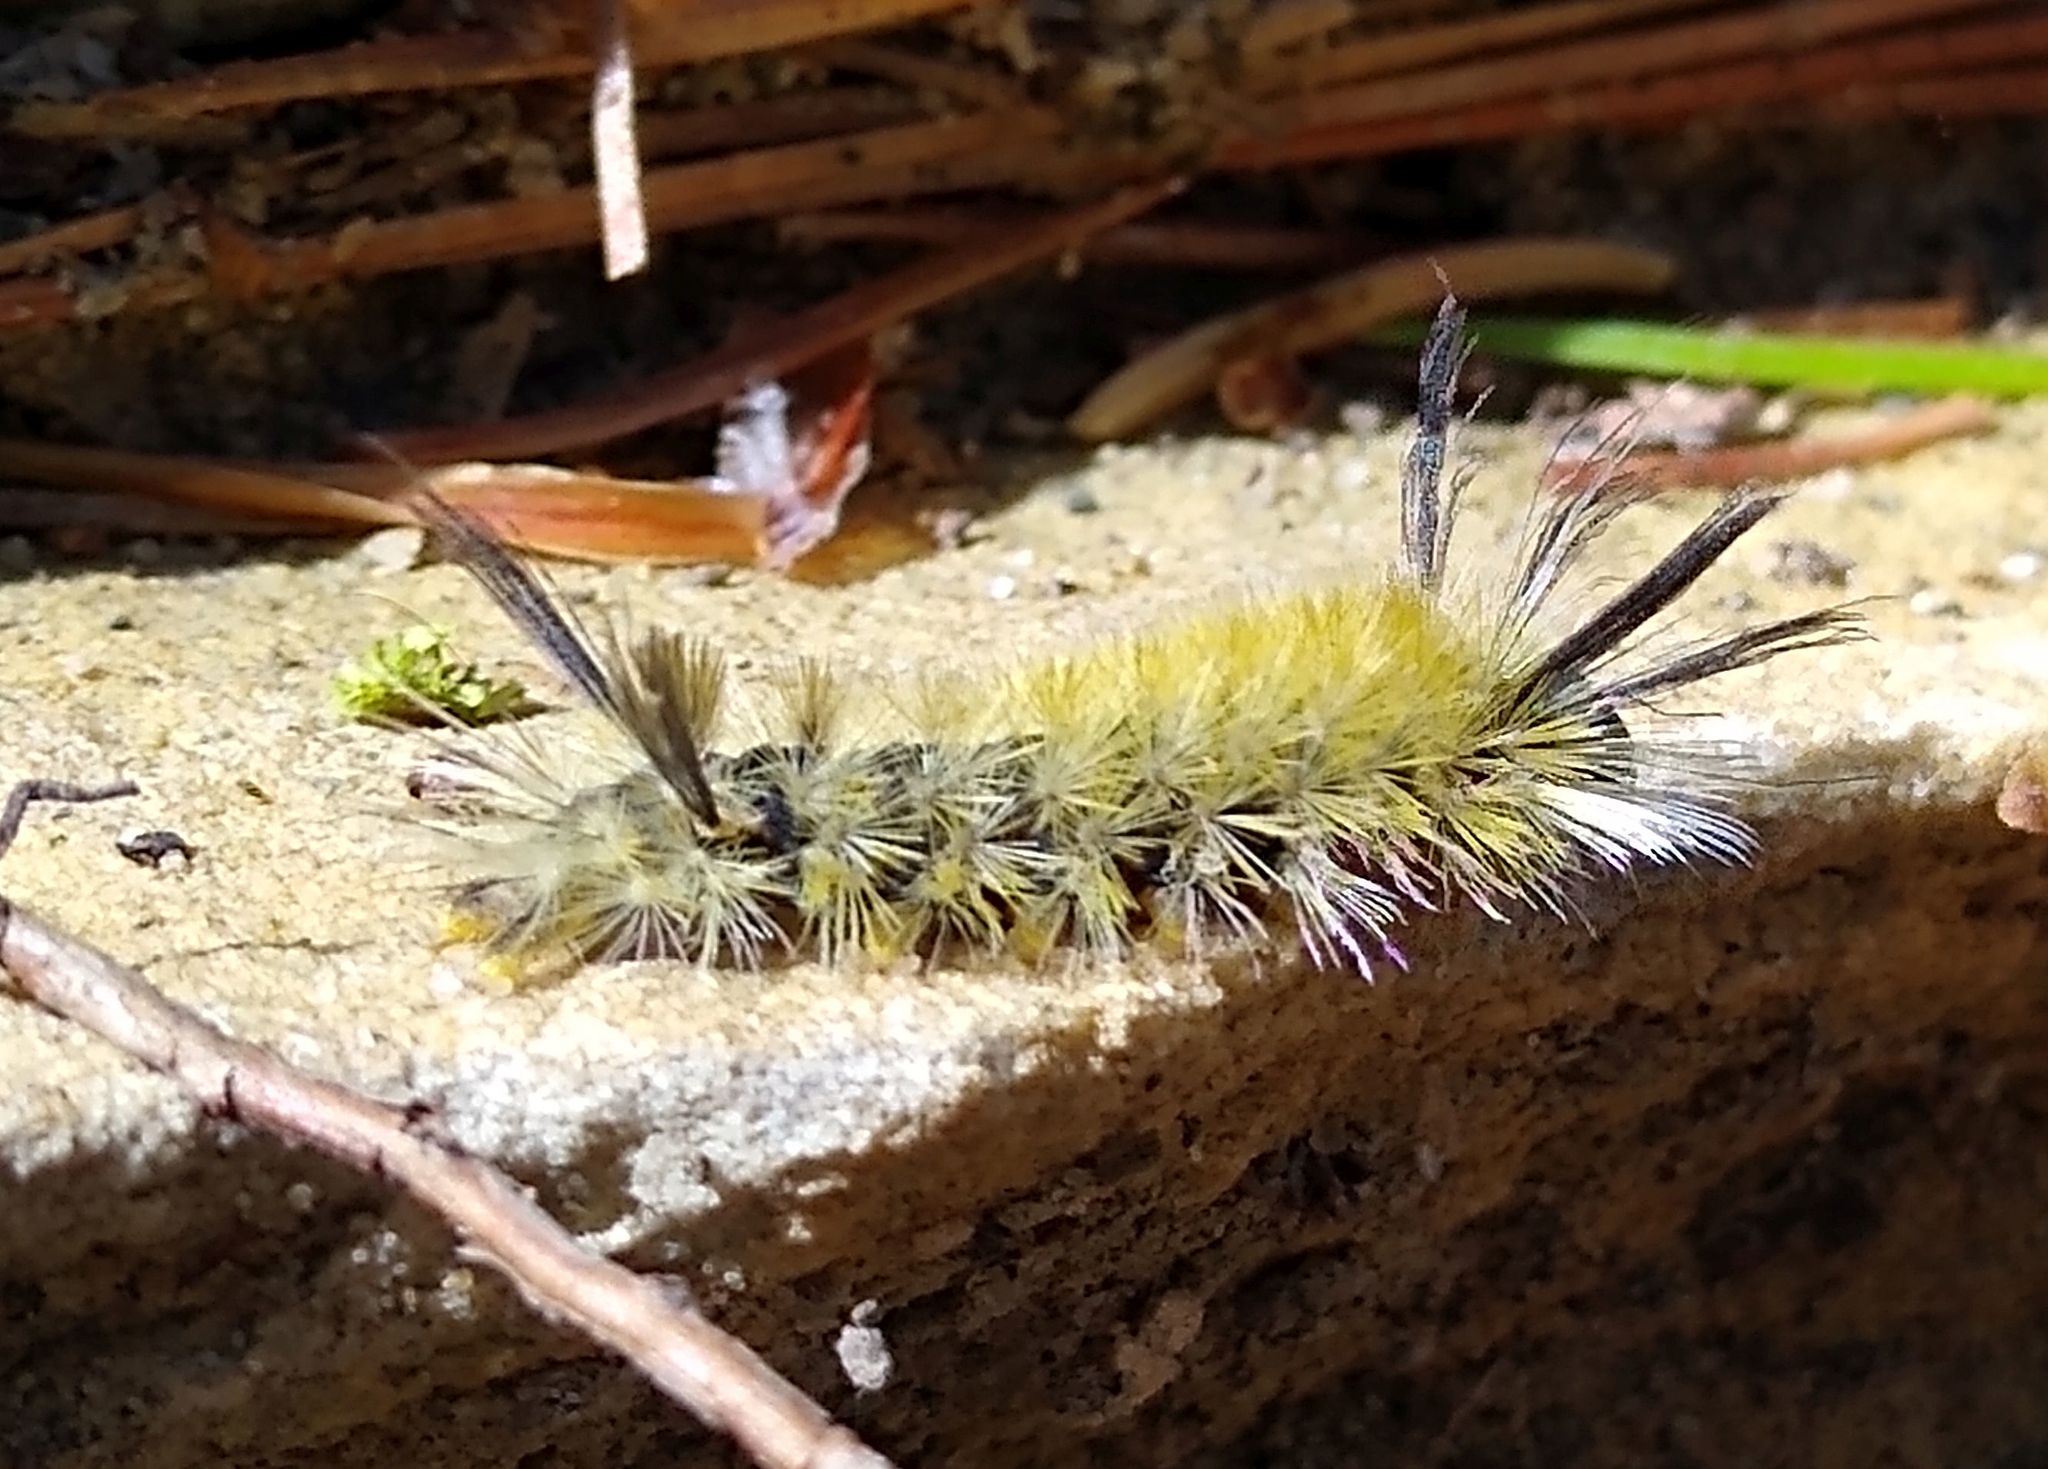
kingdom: Animalia
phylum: Arthropoda
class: Insecta
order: Lepidoptera
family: Erebidae
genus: Halysidota
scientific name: Halysidota tessellaris
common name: Banded tussock moth
